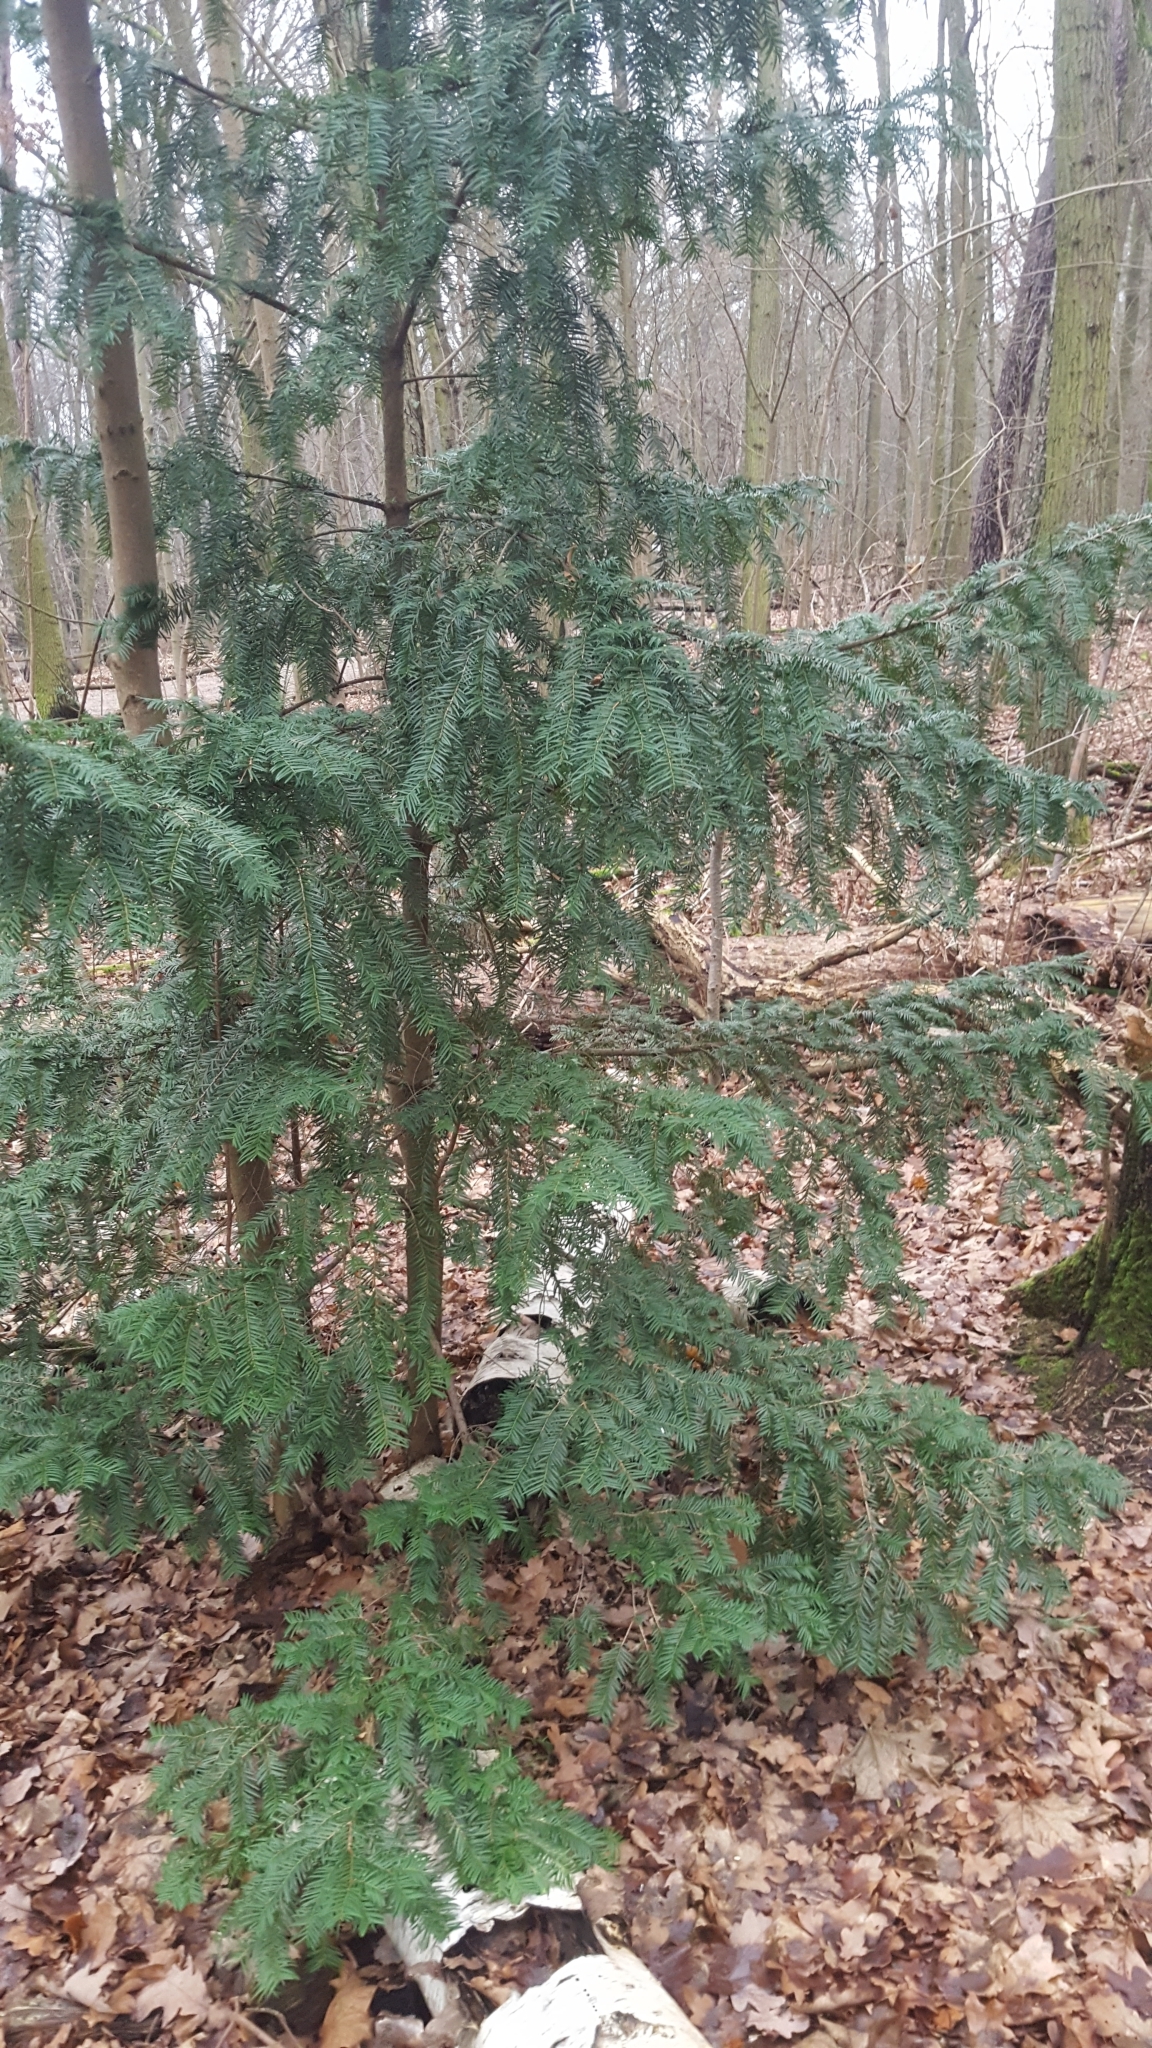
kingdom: Plantae
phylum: Tracheophyta
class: Pinopsida
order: Pinales
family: Taxaceae
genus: Taxus
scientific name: Taxus baccata
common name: Yew
